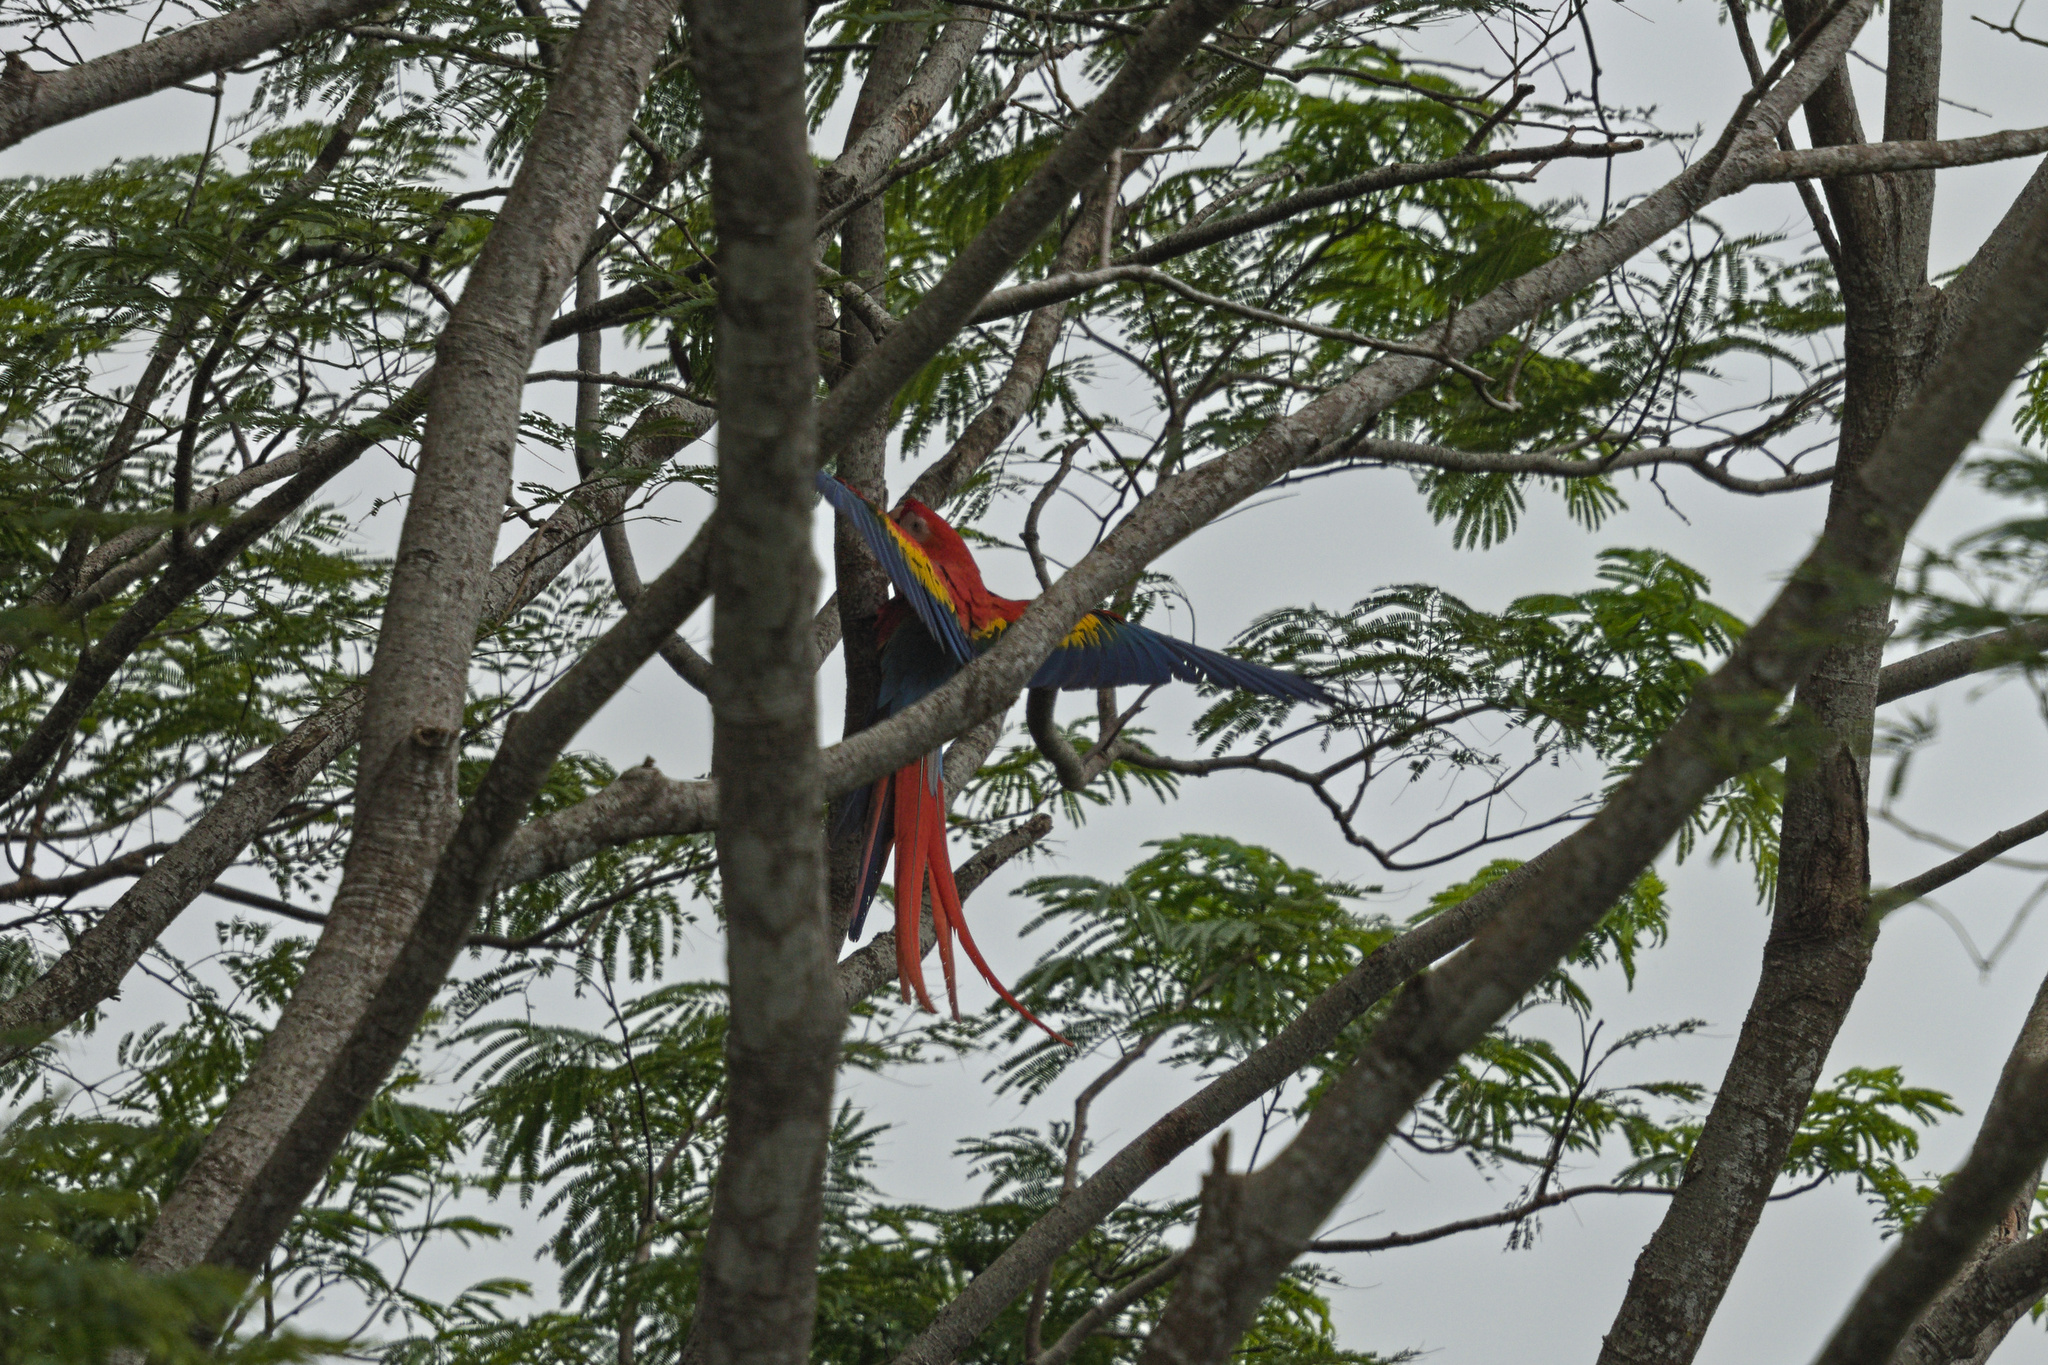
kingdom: Animalia
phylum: Chordata
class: Aves
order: Psittaciformes
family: Psittacidae
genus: Ara
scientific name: Ara macao
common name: Scarlet macaw
